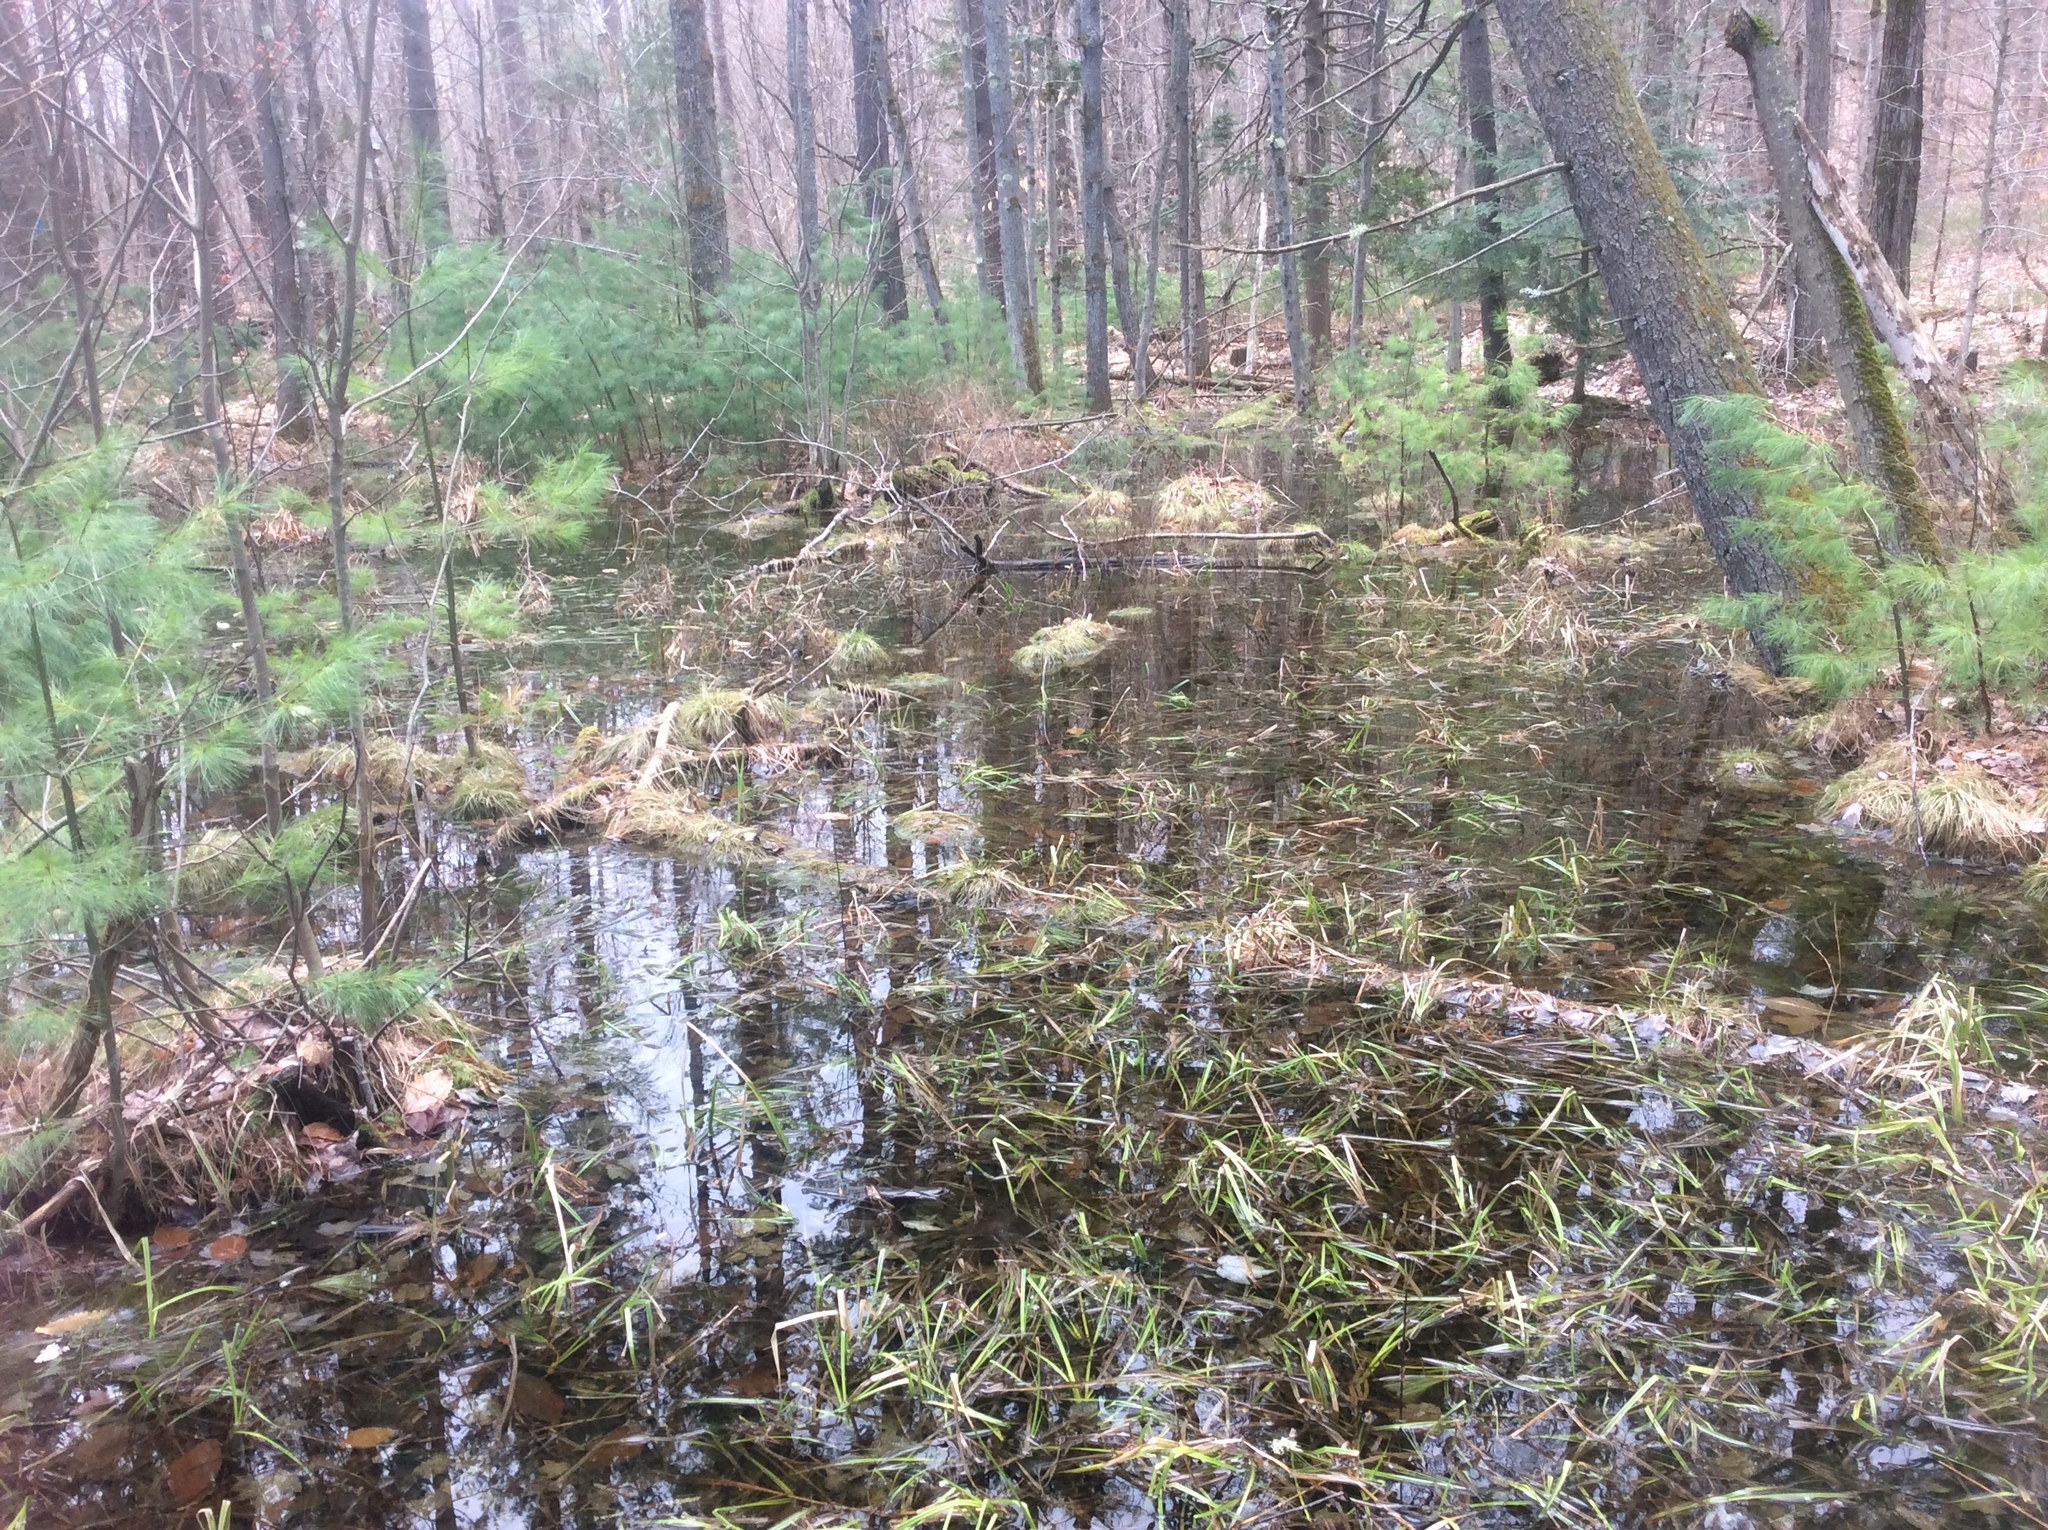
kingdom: Animalia
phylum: Chordata
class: Amphibia
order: Anura
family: Ranidae
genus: Lithobates
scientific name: Lithobates sylvaticus
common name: Wood frog
